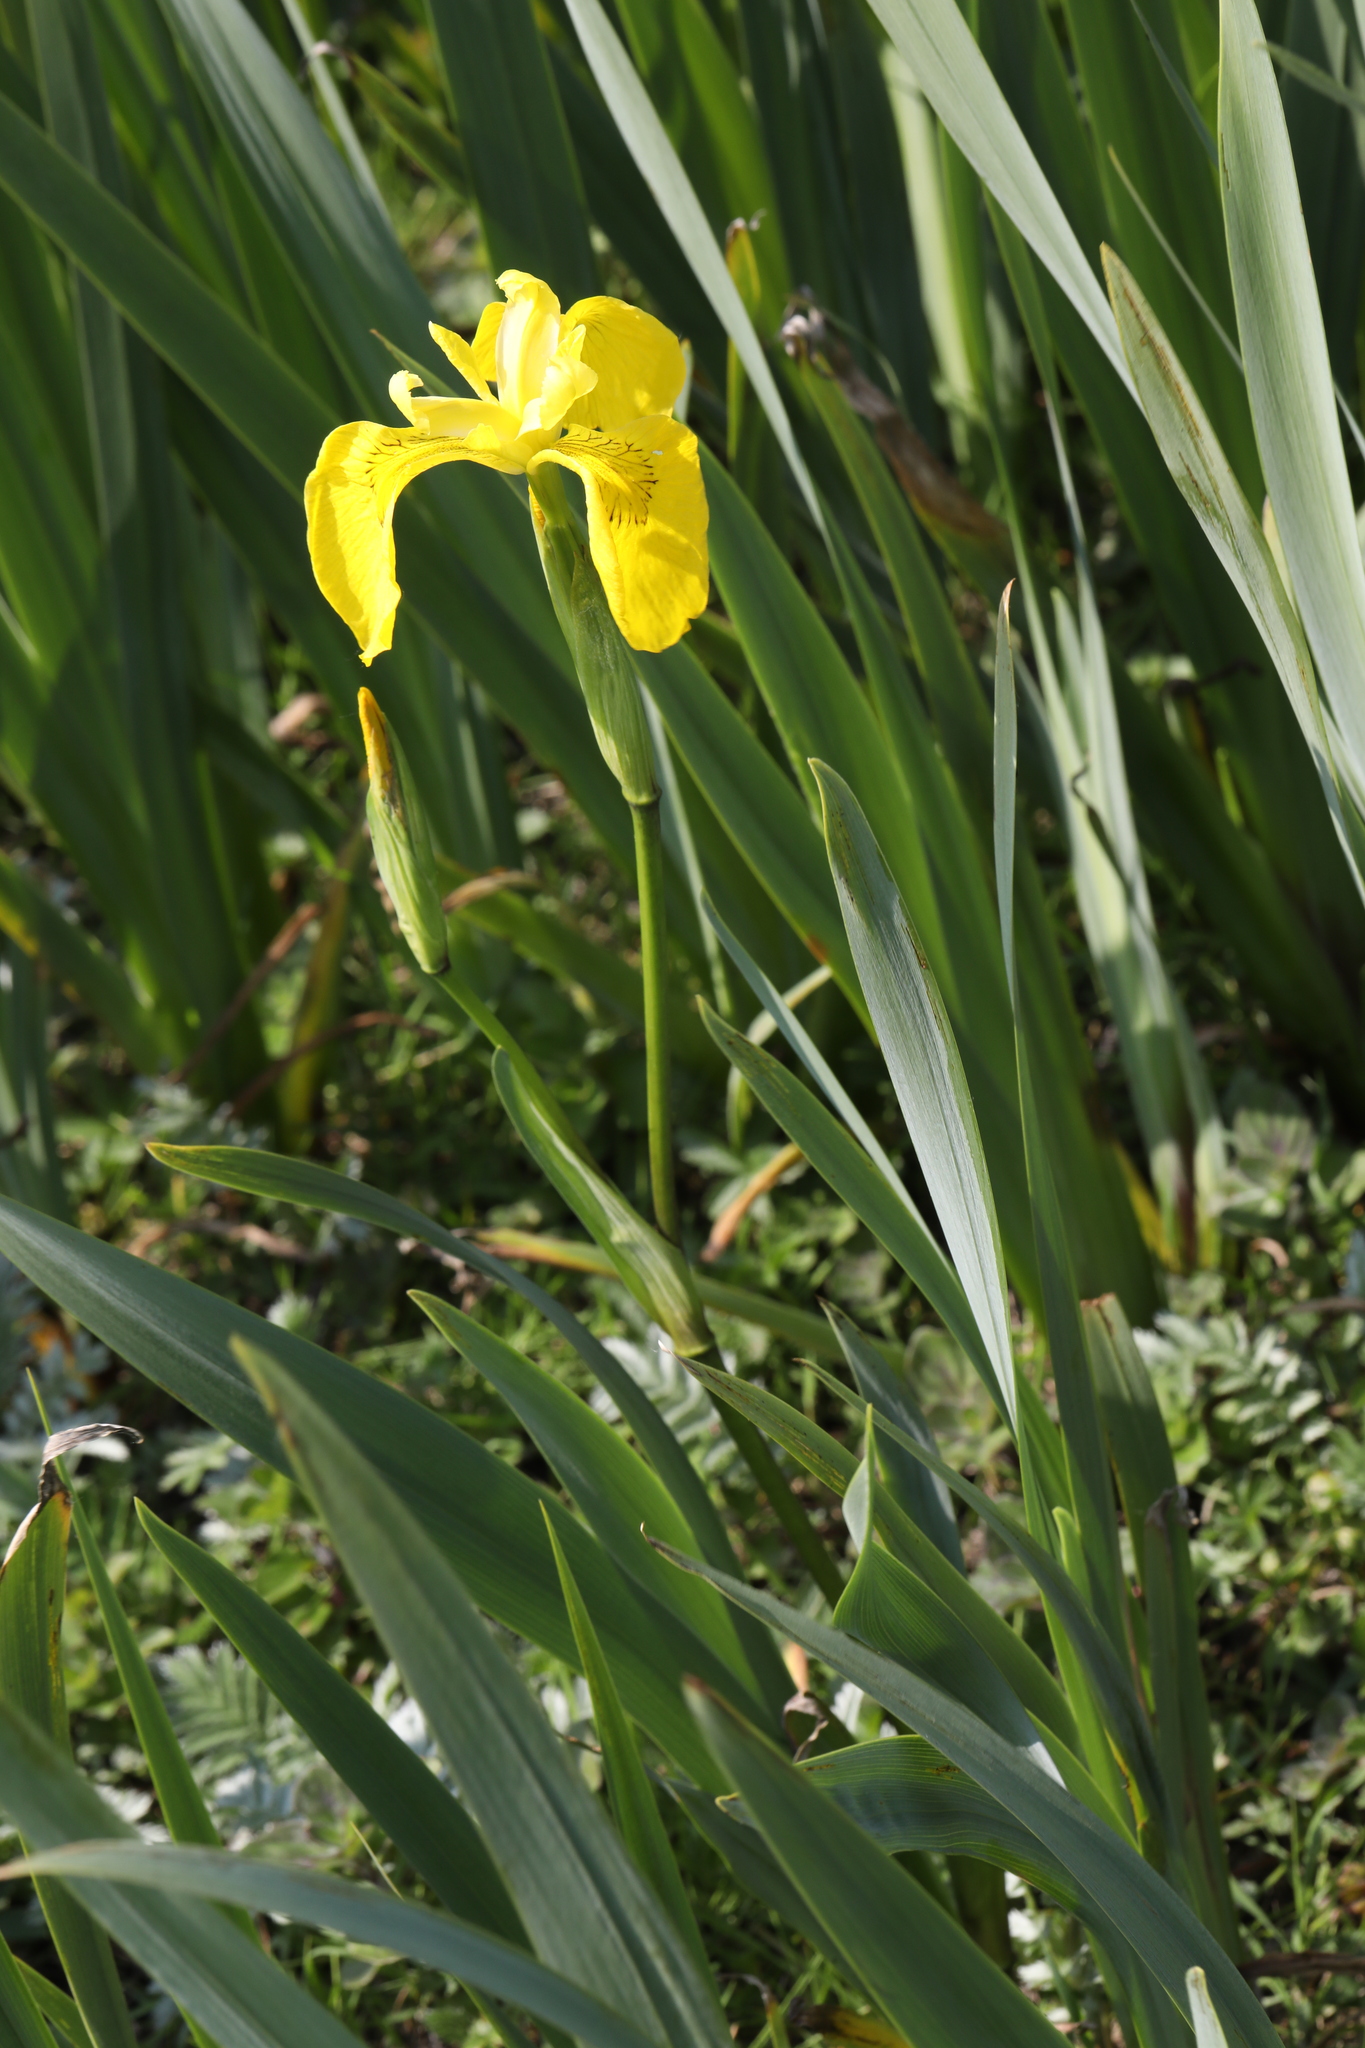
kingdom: Plantae
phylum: Tracheophyta
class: Liliopsida
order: Asparagales
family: Iridaceae
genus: Iris
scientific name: Iris pseudacorus
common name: Yellow flag
